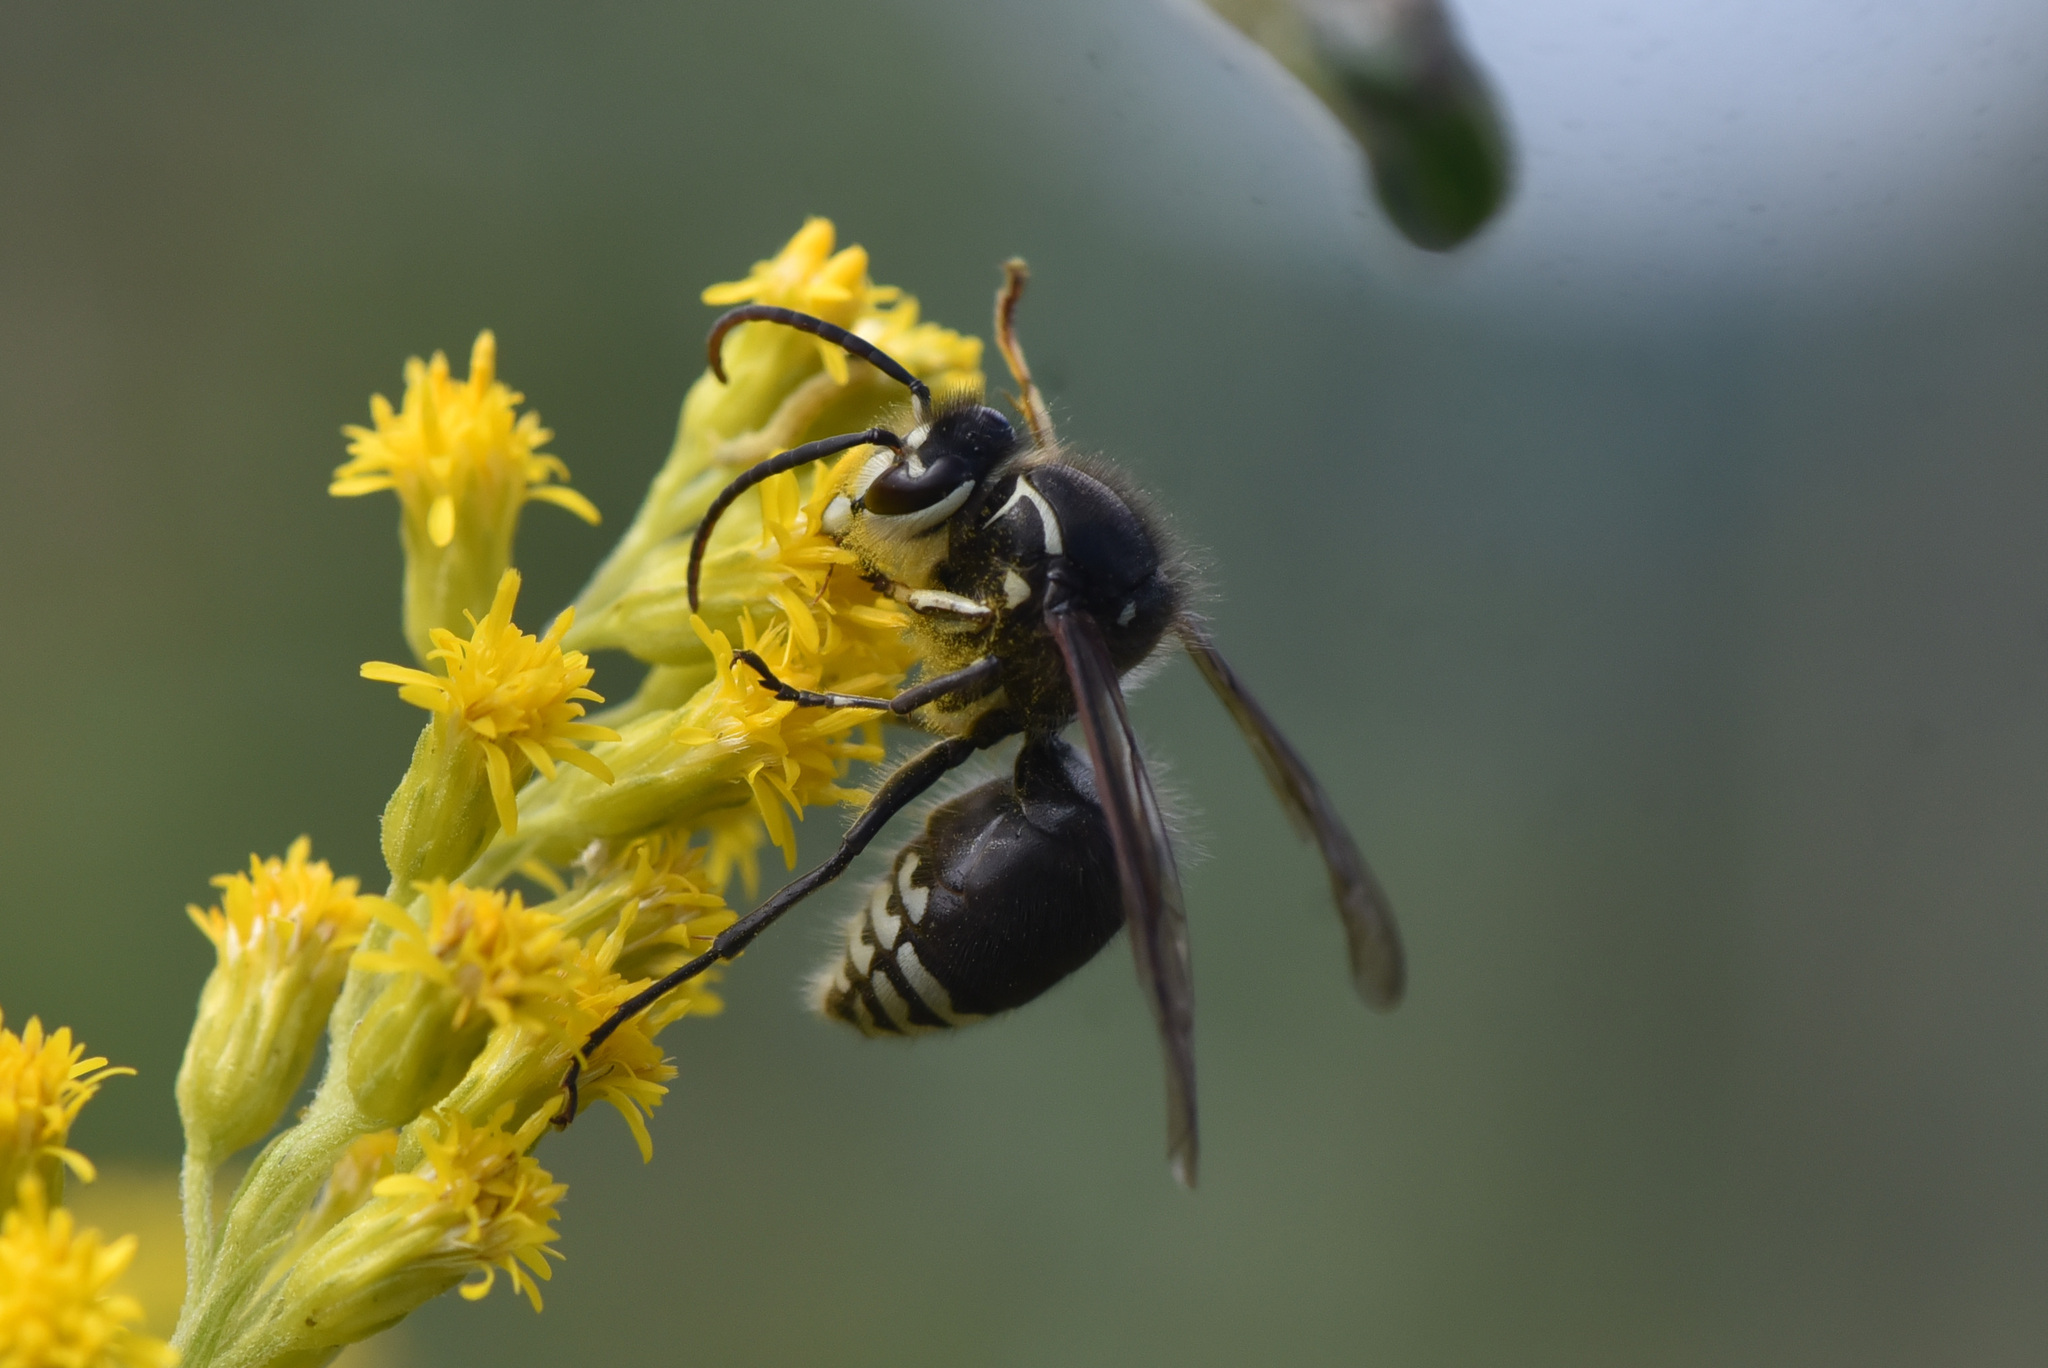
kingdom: Animalia
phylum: Arthropoda
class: Insecta
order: Hymenoptera
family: Vespidae
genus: Dolichovespula
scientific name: Dolichovespula maculata
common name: Bald-faced hornet
